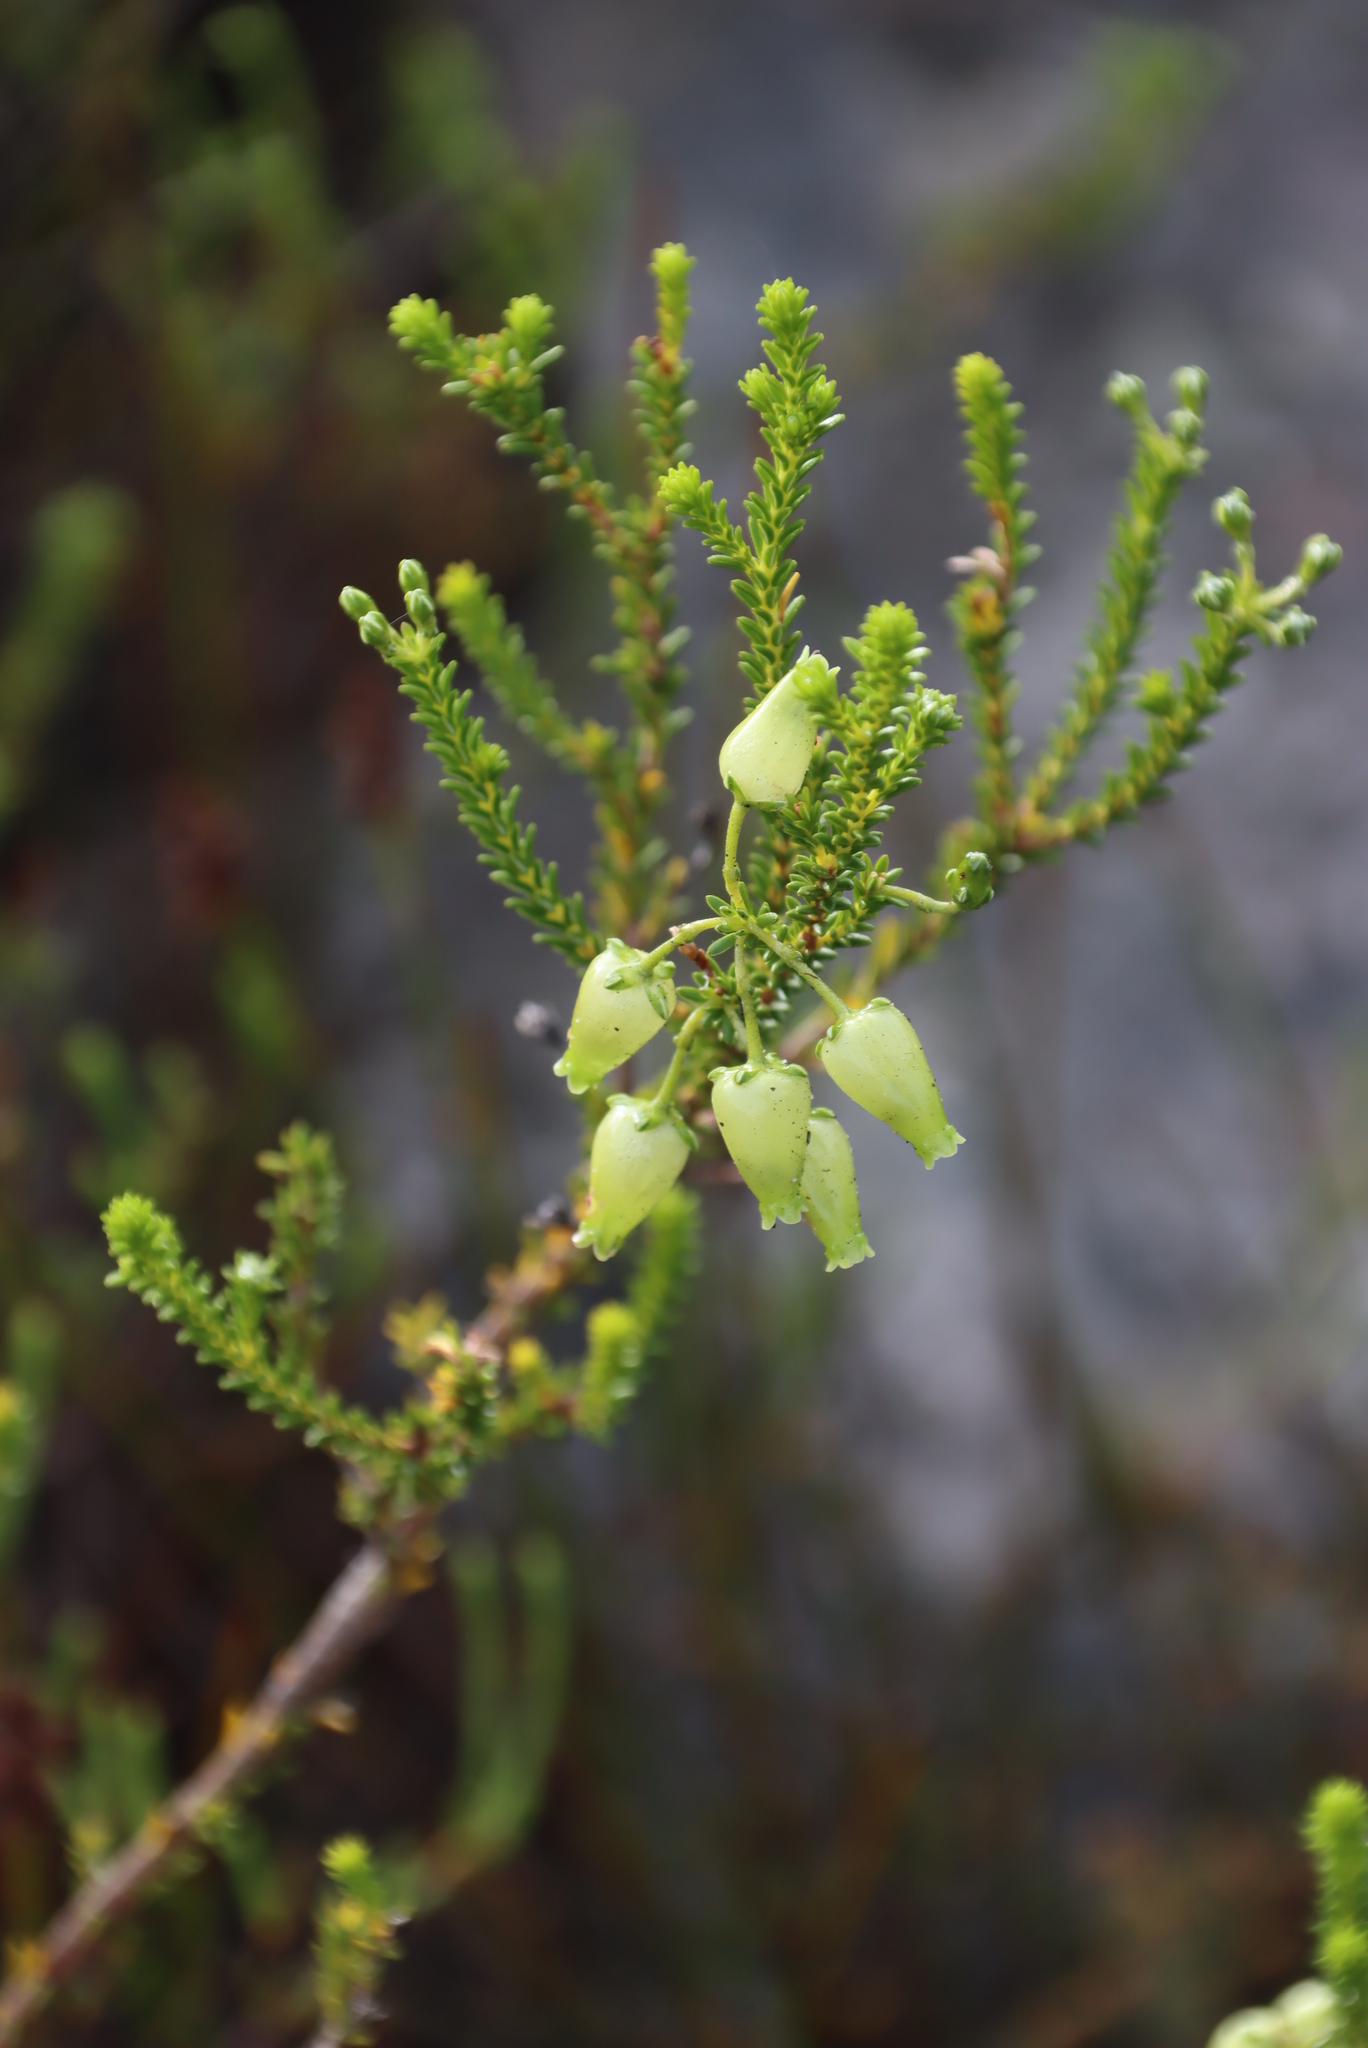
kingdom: Plantae
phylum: Tracheophyta
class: Magnoliopsida
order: Ericales
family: Ericaceae
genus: Erica
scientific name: Erica urna-viridis
